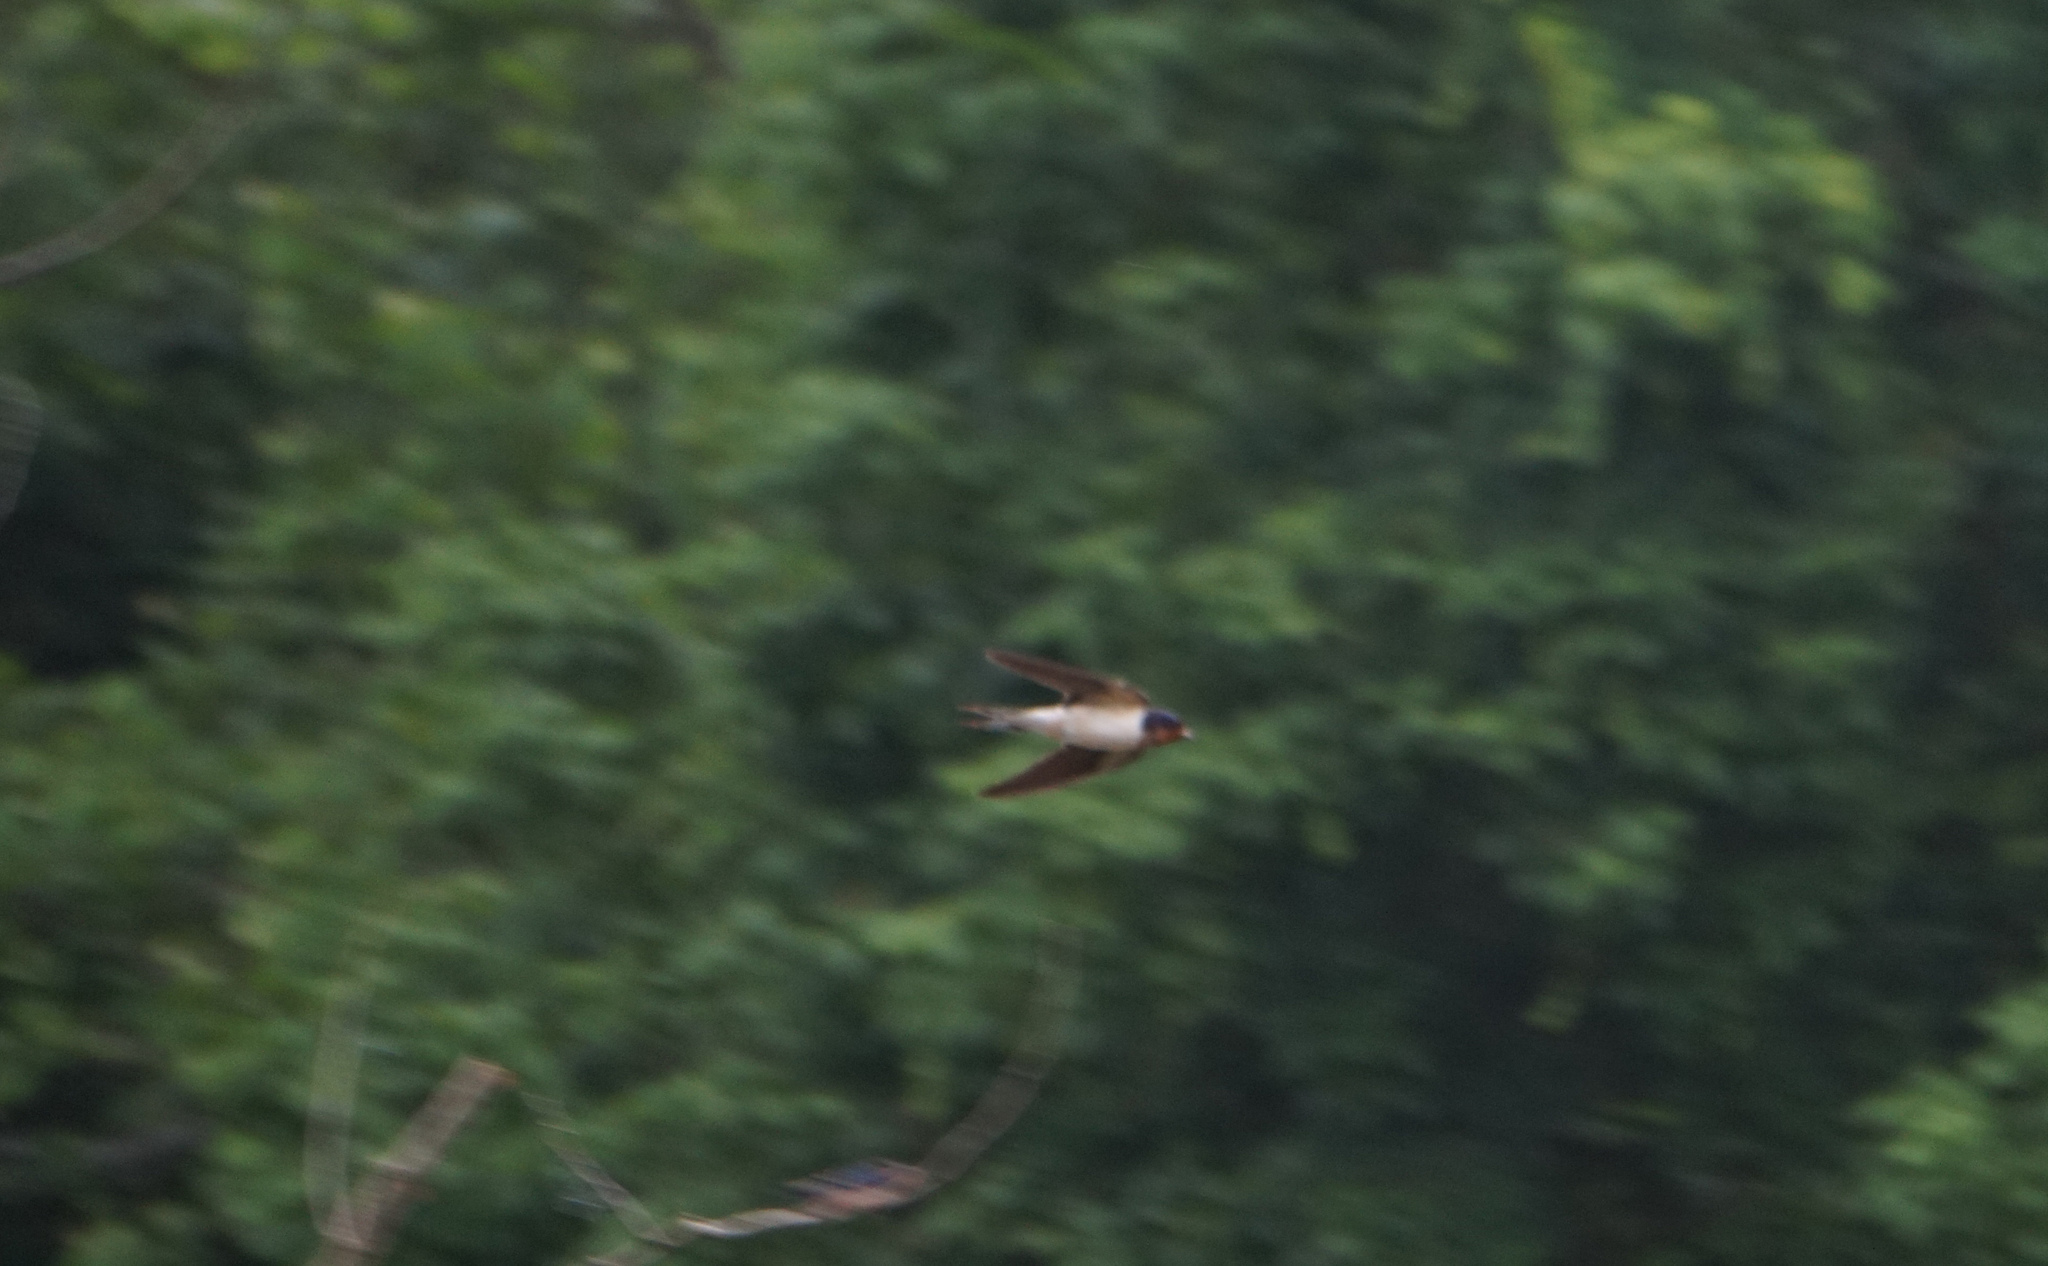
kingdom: Animalia
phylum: Chordata
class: Aves
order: Passeriformes
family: Hirundinidae
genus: Hirundo
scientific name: Hirundo rustica
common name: Barn swallow
